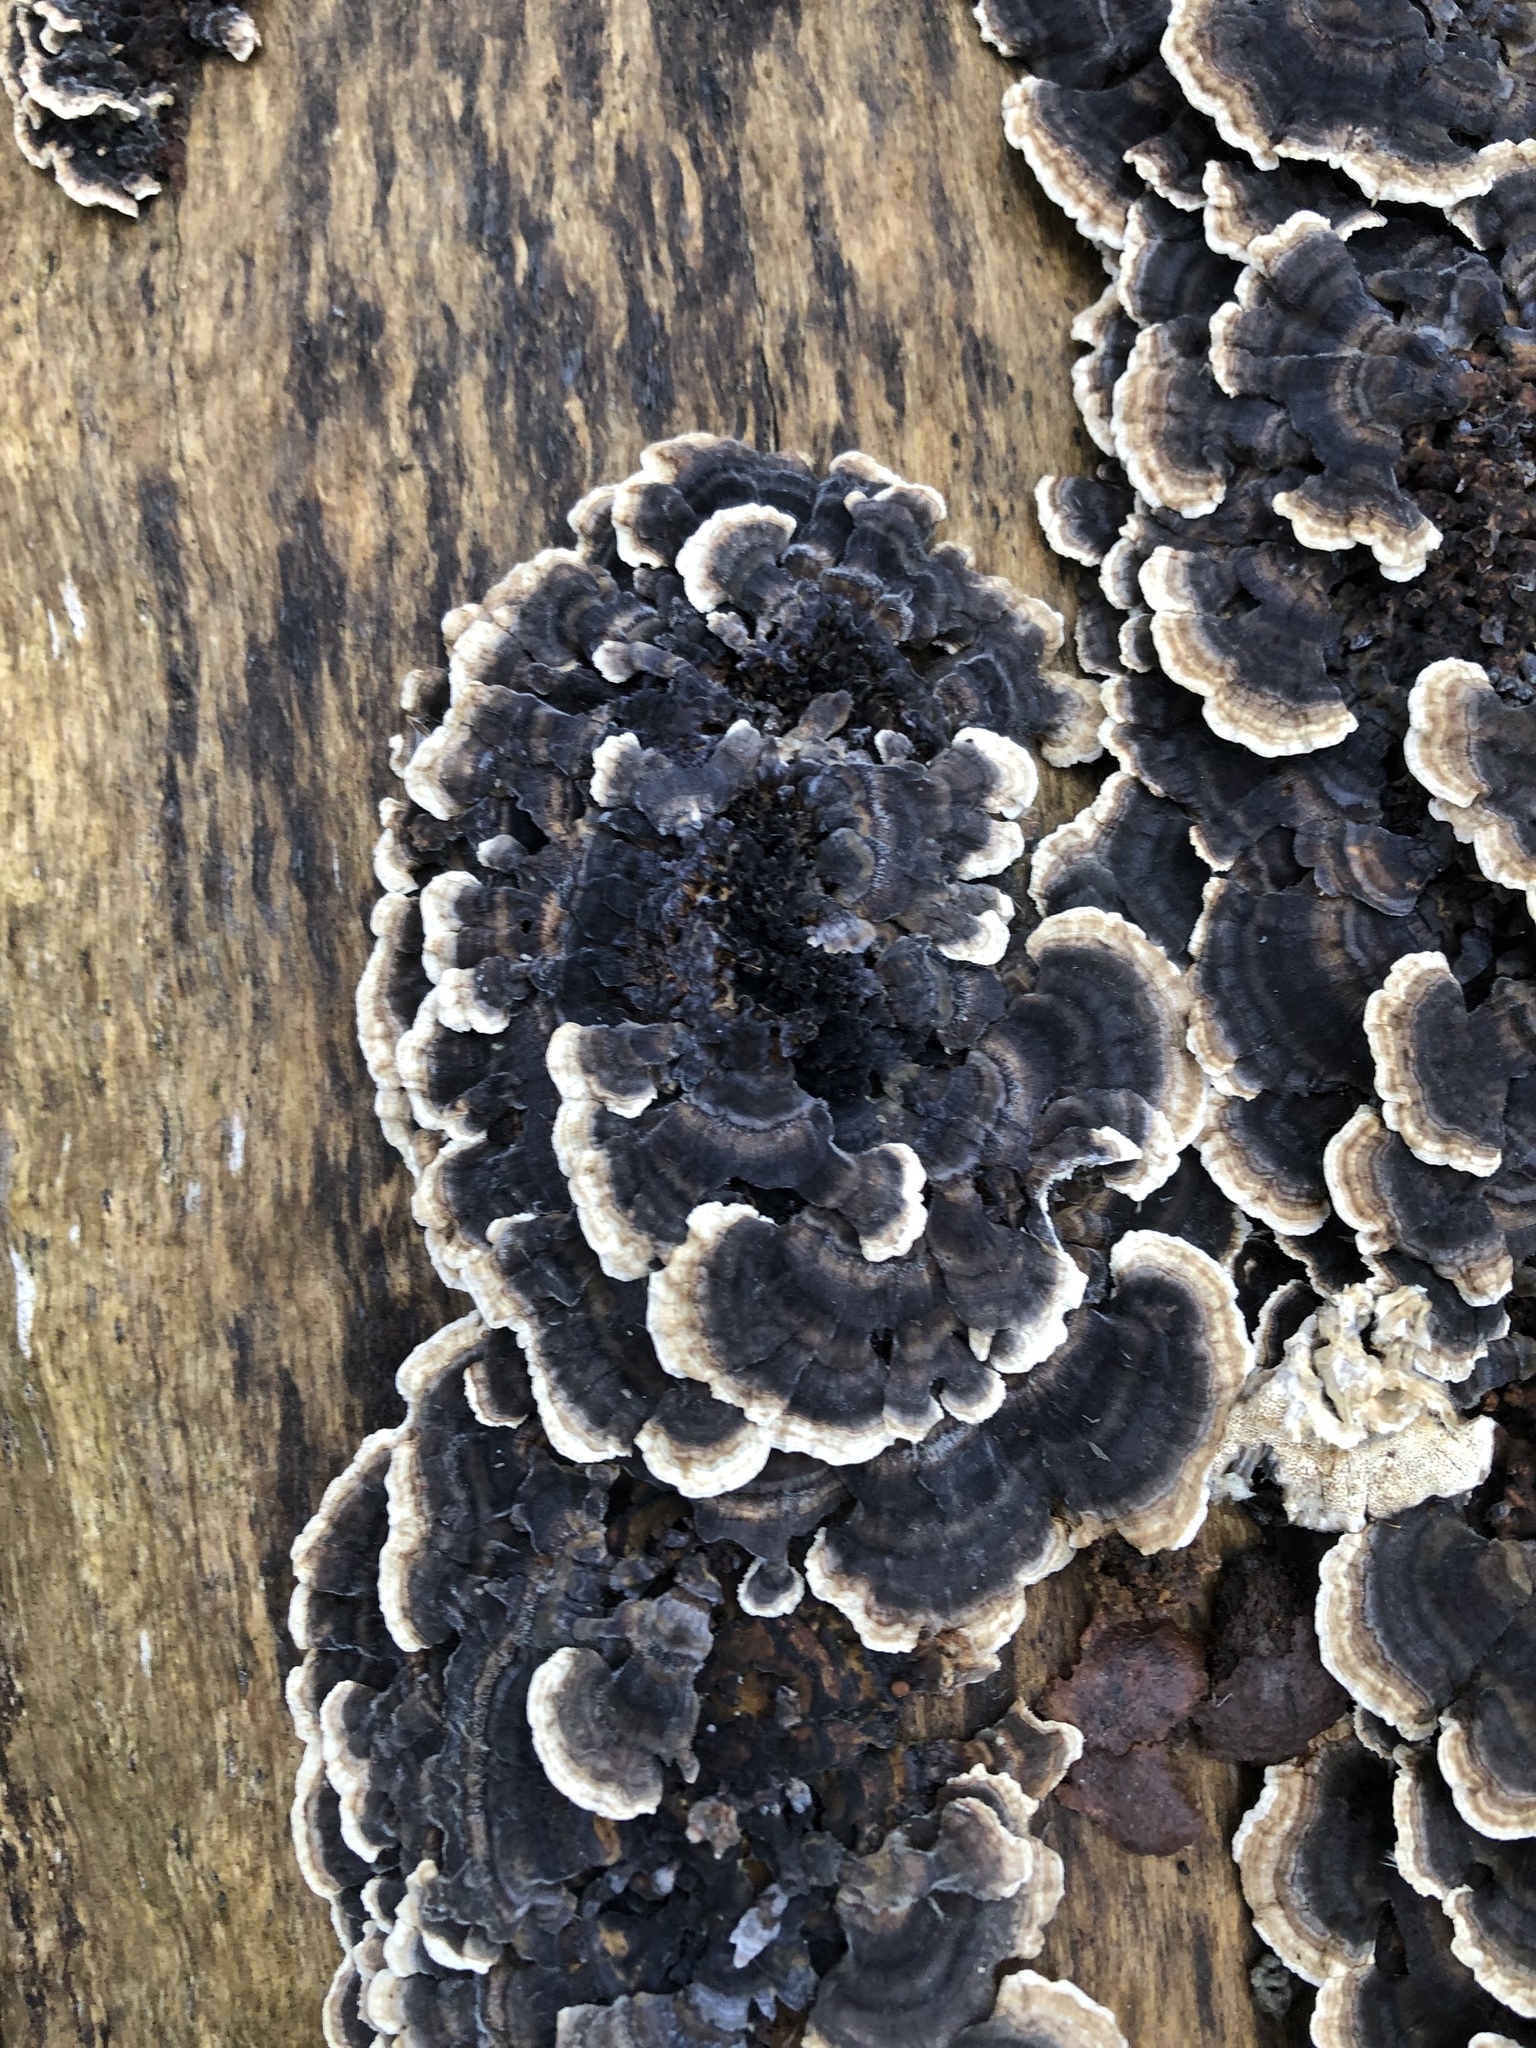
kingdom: Fungi
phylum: Basidiomycota
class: Agaricomycetes
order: Polyporales
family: Polyporaceae
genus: Trametes
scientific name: Trametes versicolor
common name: Turkeytail
